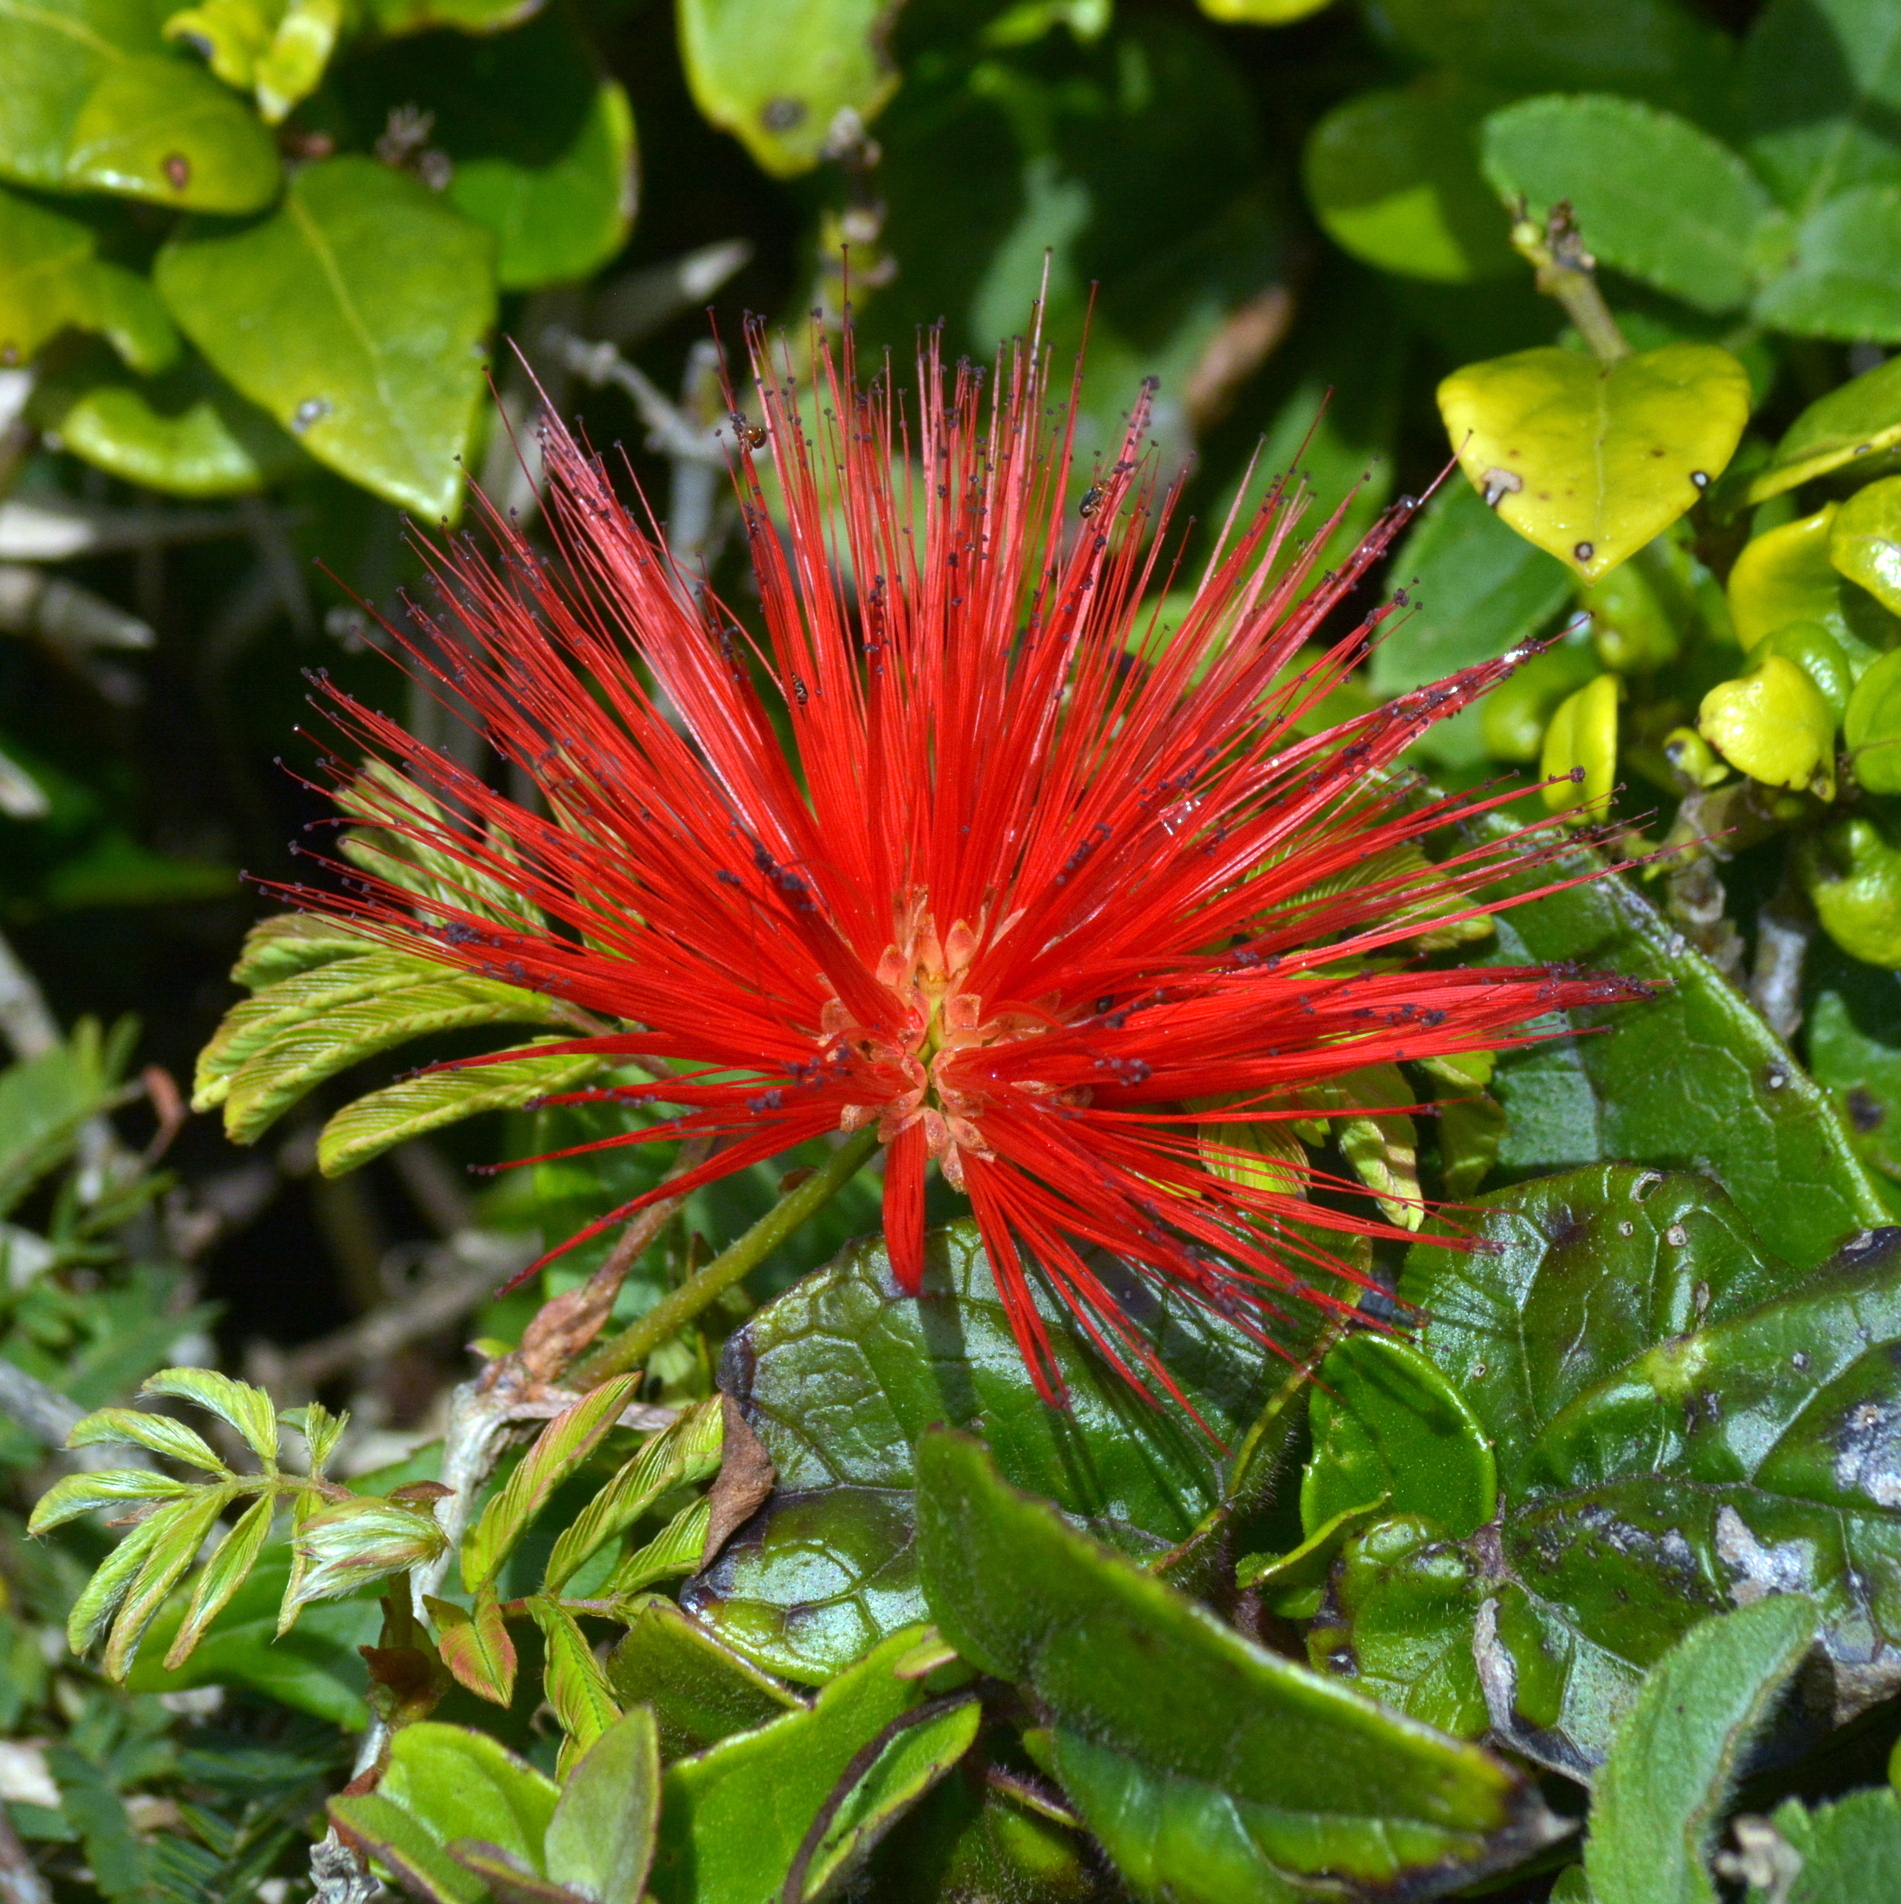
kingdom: Plantae
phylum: Tracheophyta
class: Magnoliopsida
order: Fabales
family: Fabaceae
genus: Calliandra
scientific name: Calliandra tweediei
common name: Mexican flamebush
